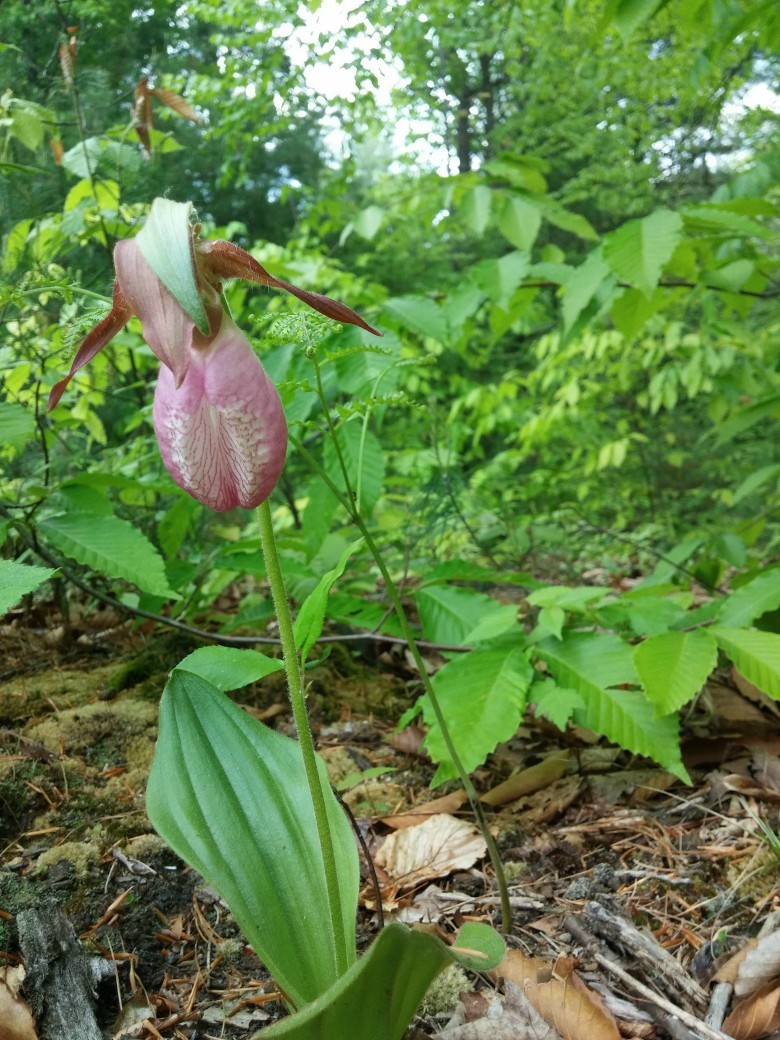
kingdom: Plantae
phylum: Tracheophyta
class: Liliopsida
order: Asparagales
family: Orchidaceae
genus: Cypripedium
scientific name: Cypripedium acaule
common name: Pink lady's-slipper
